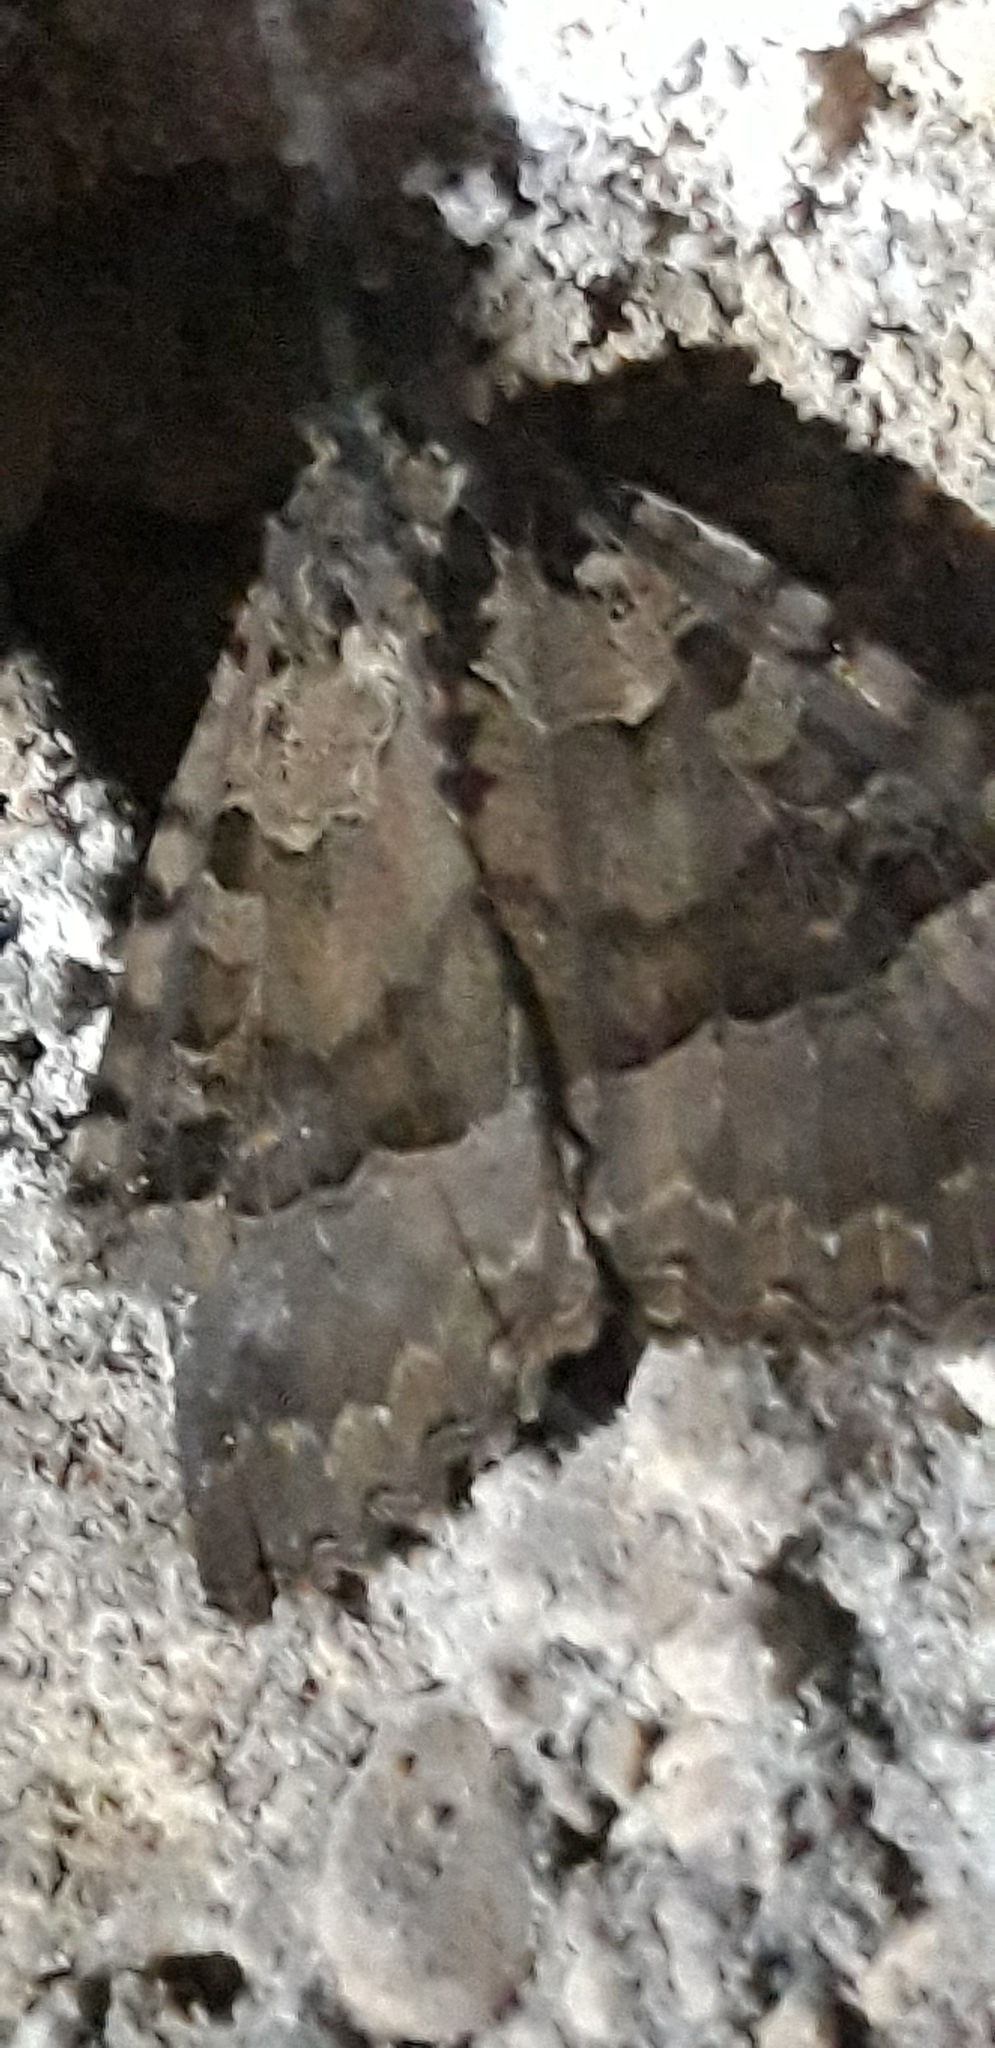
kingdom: Animalia
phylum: Arthropoda
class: Insecta
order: Lepidoptera
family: Noctuidae
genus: Mormo
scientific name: Mormo maura
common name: Old lady
